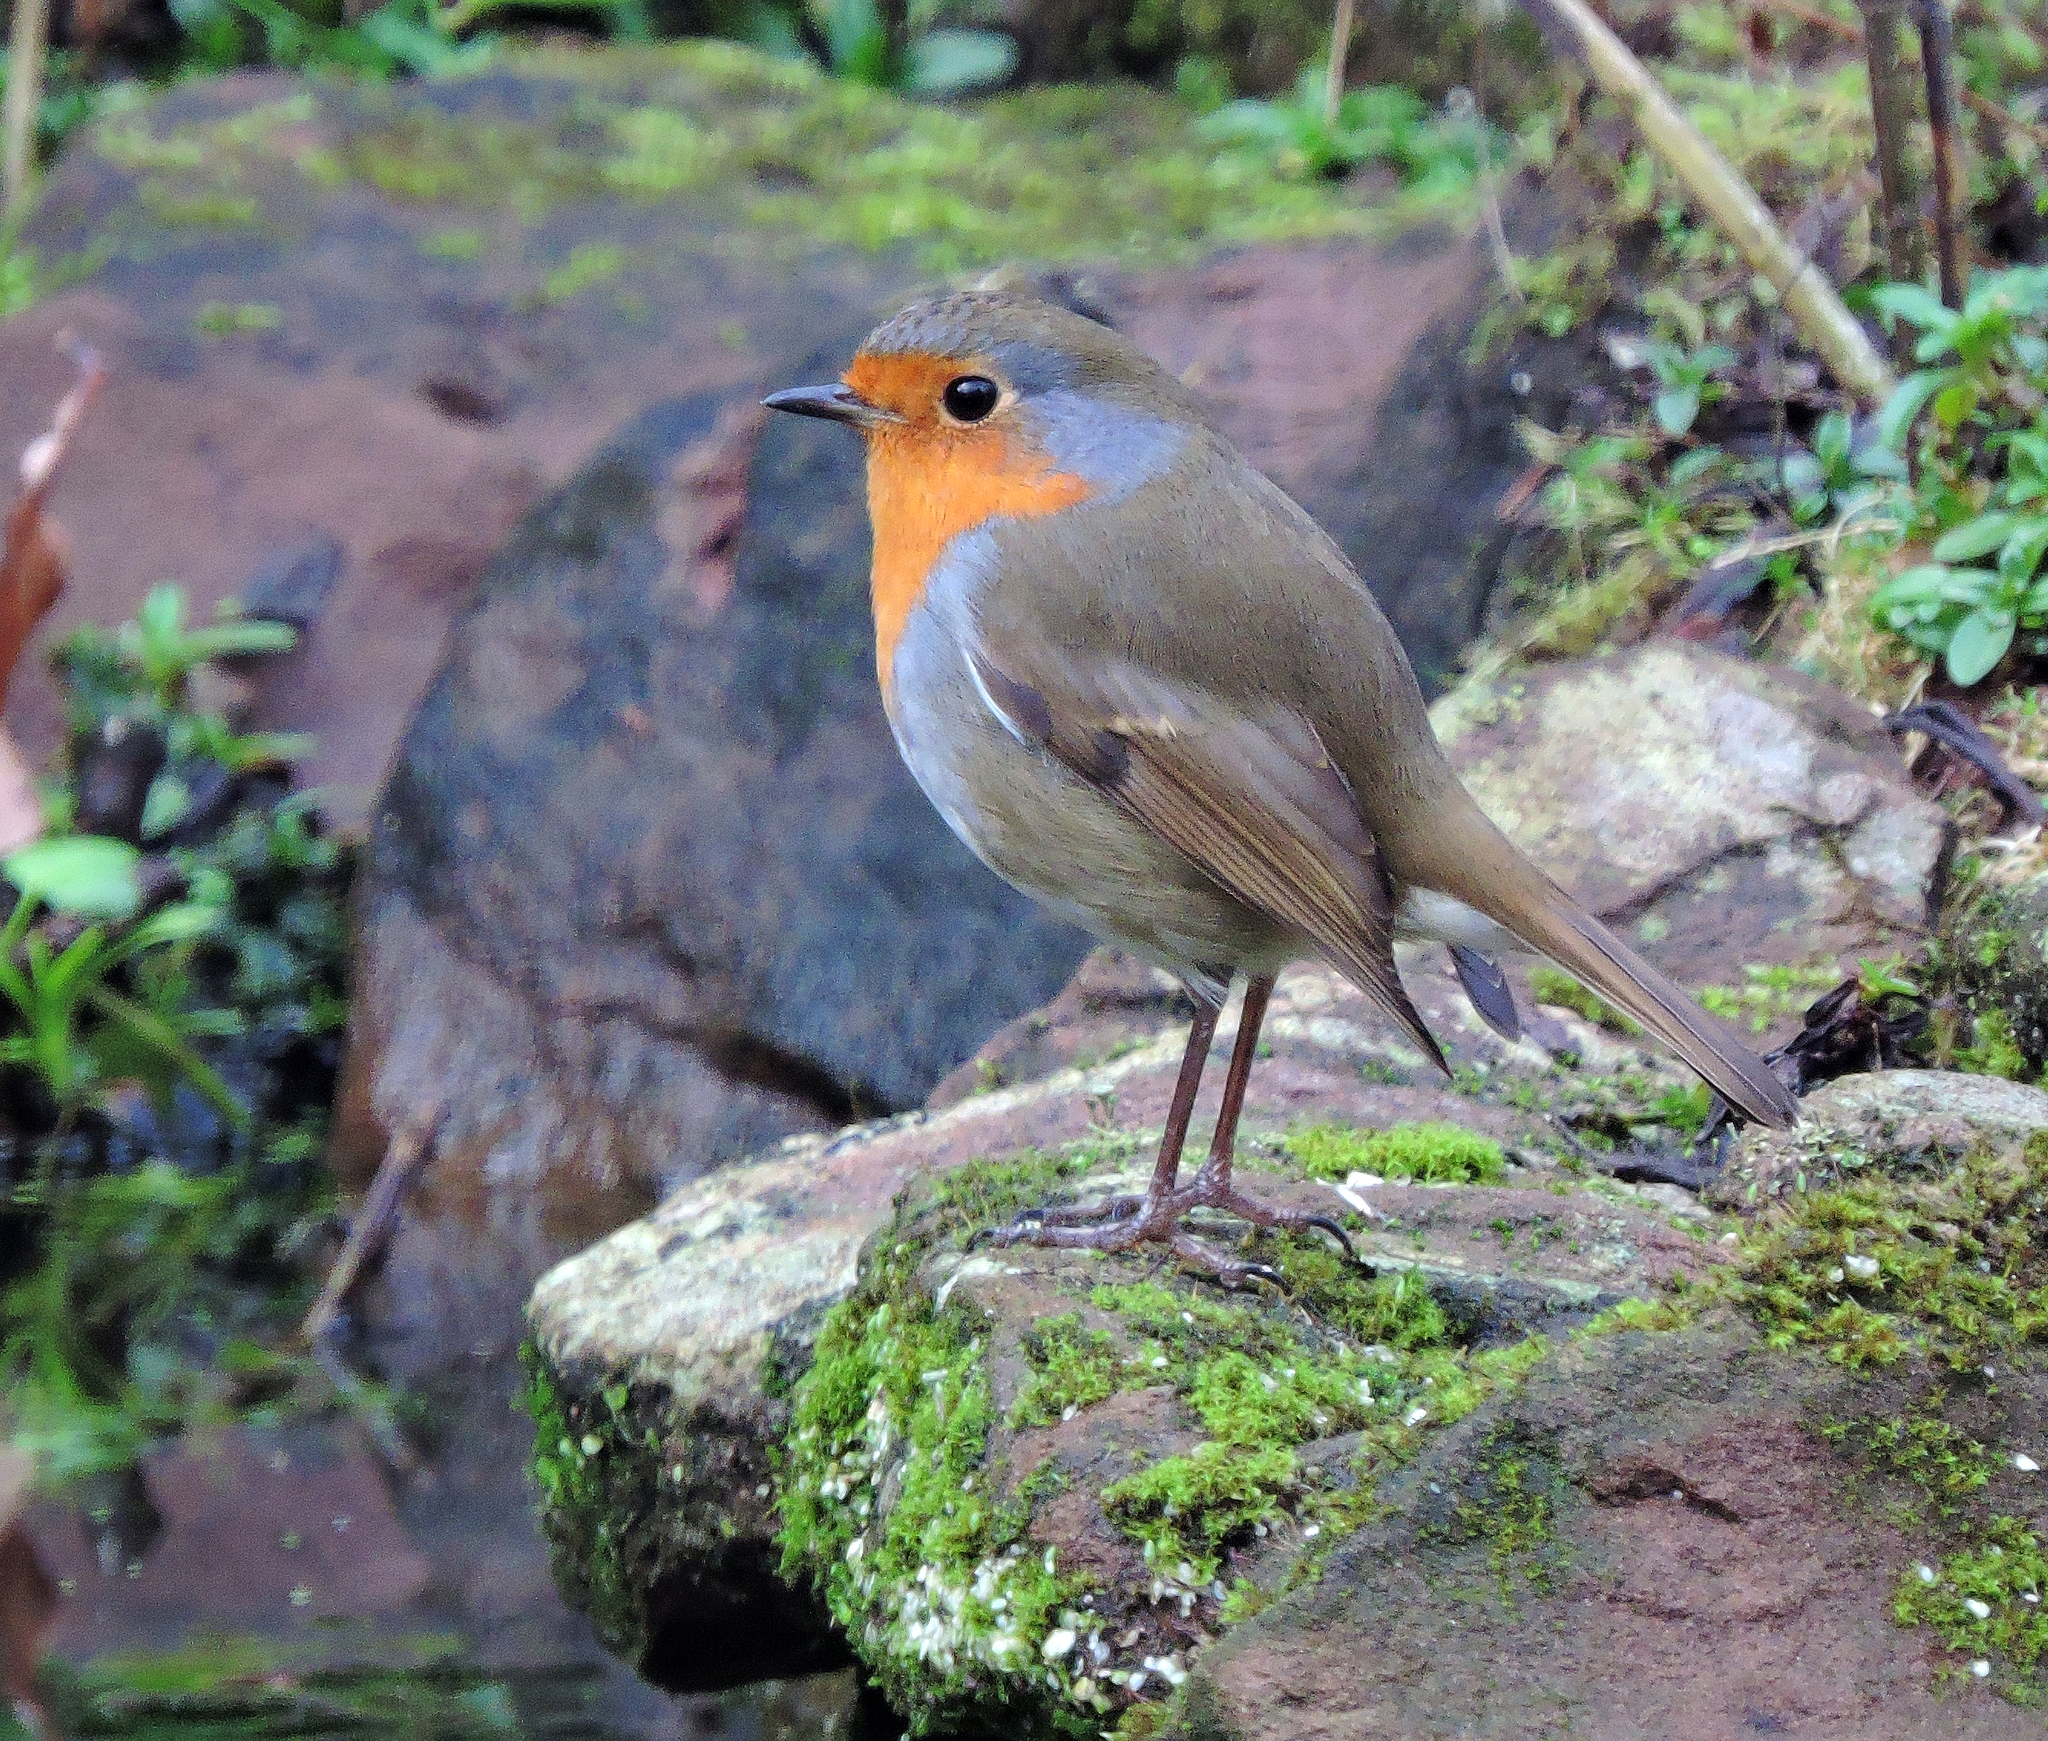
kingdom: Animalia
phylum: Chordata
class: Aves
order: Passeriformes
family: Muscicapidae
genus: Erithacus
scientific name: Erithacus rubecula
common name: European robin
